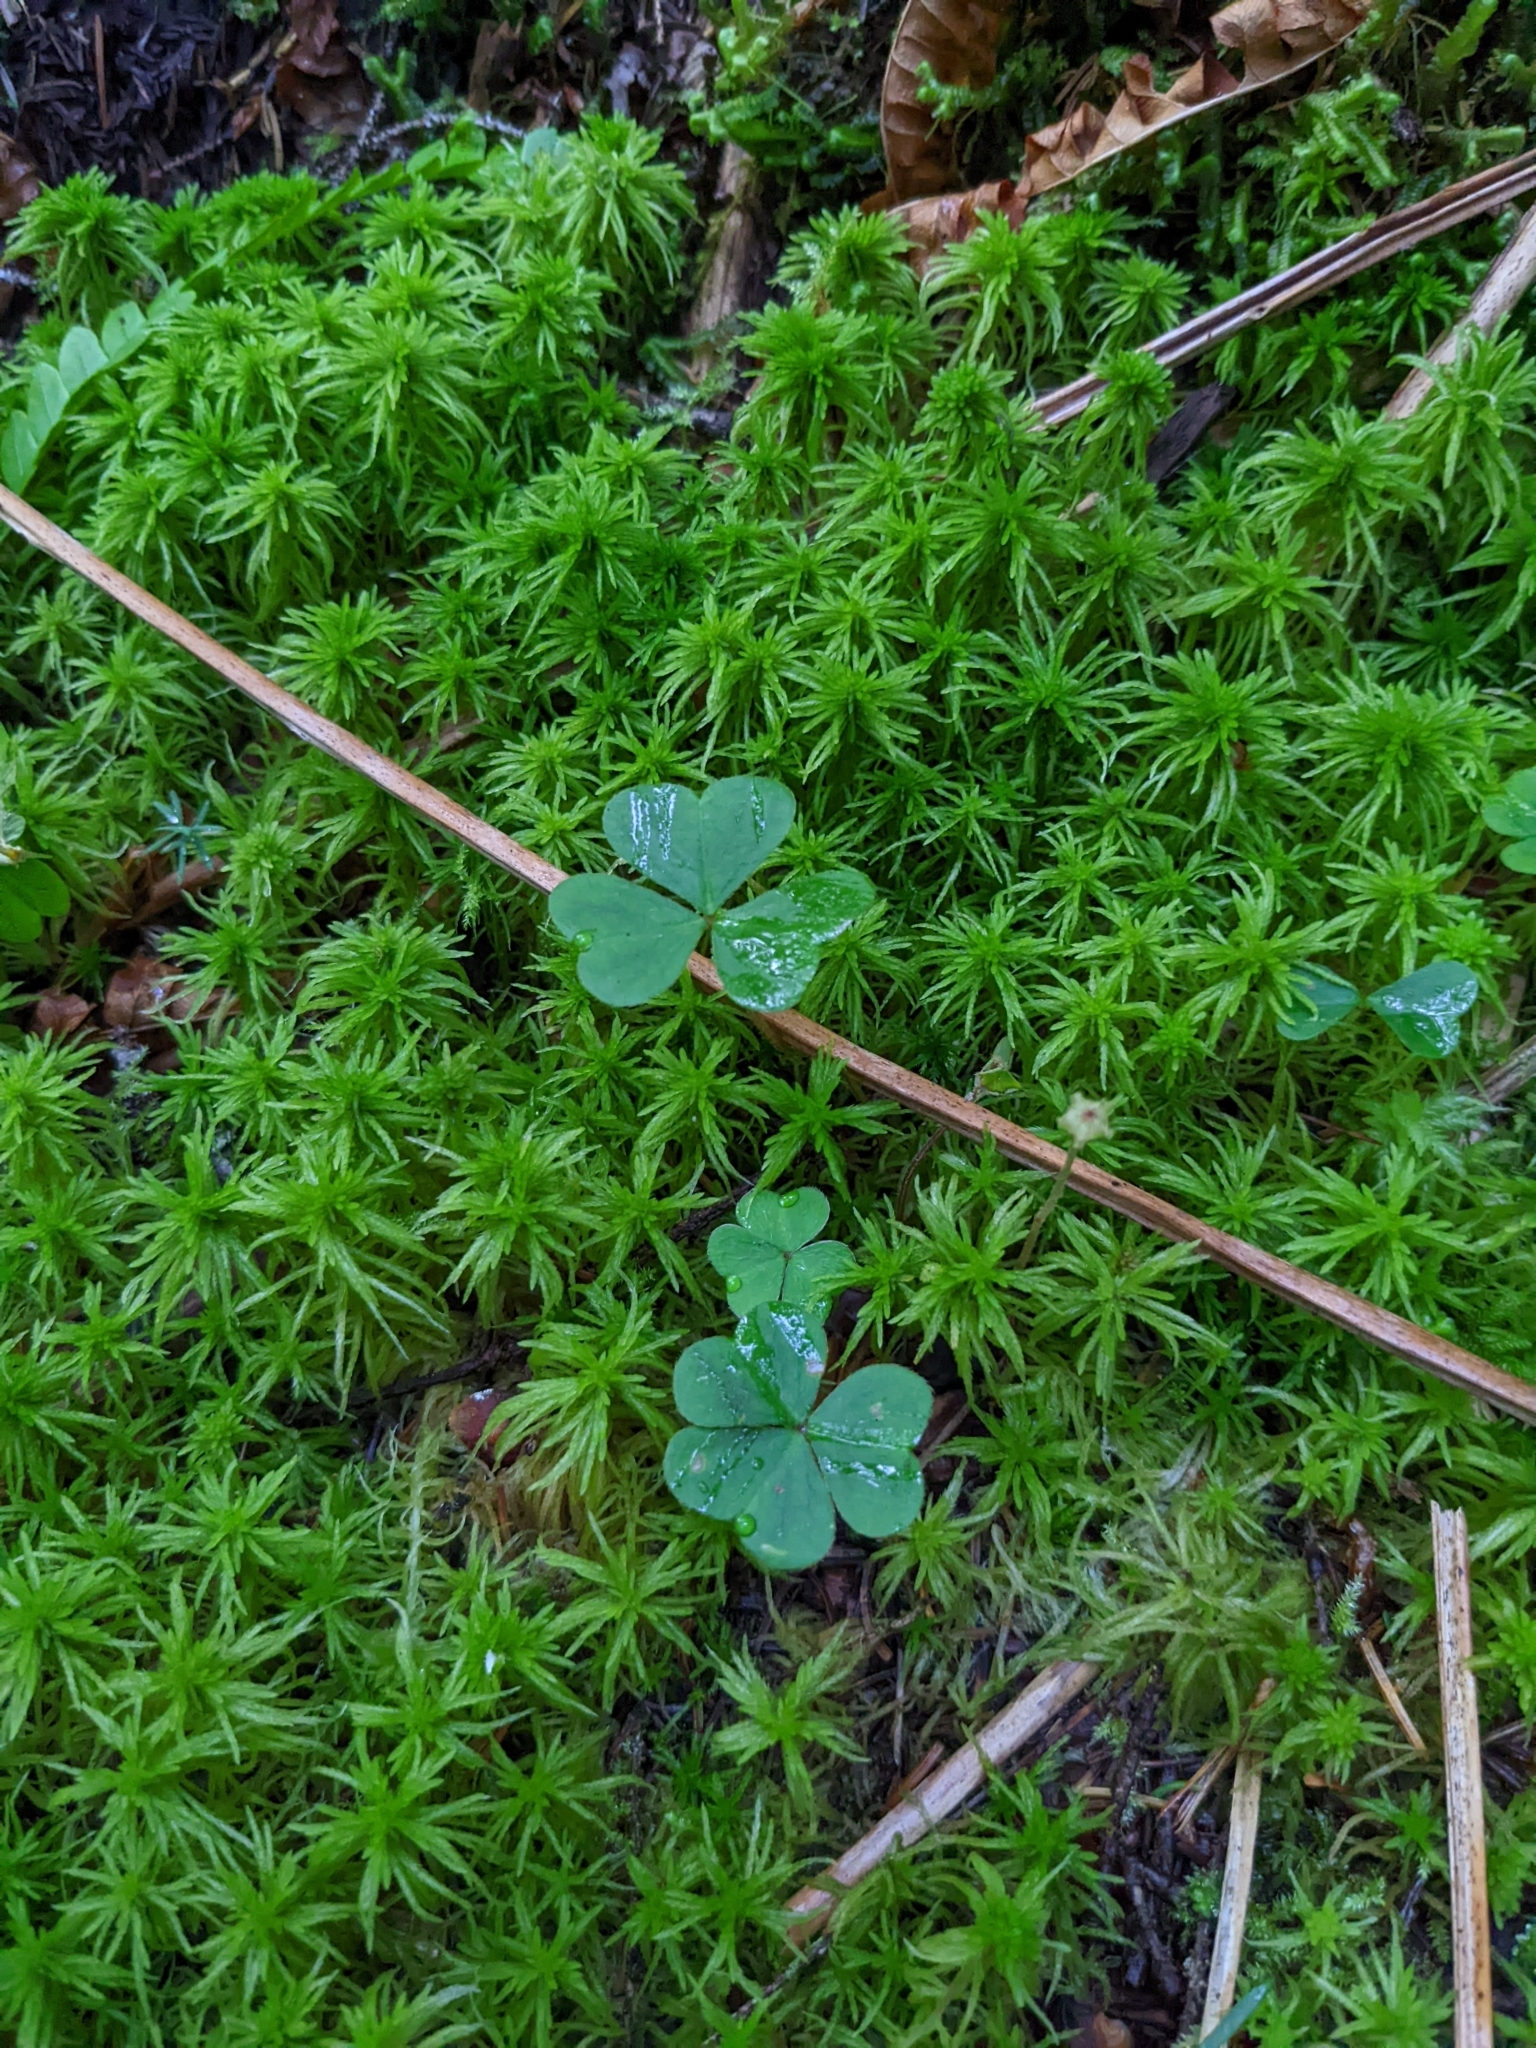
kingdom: Plantae
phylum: Tracheophyta
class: Magnoliopsida
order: Oxalidales
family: Oxalidaceae
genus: Oxalis
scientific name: Oxalis montana
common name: American wood-sorrel
